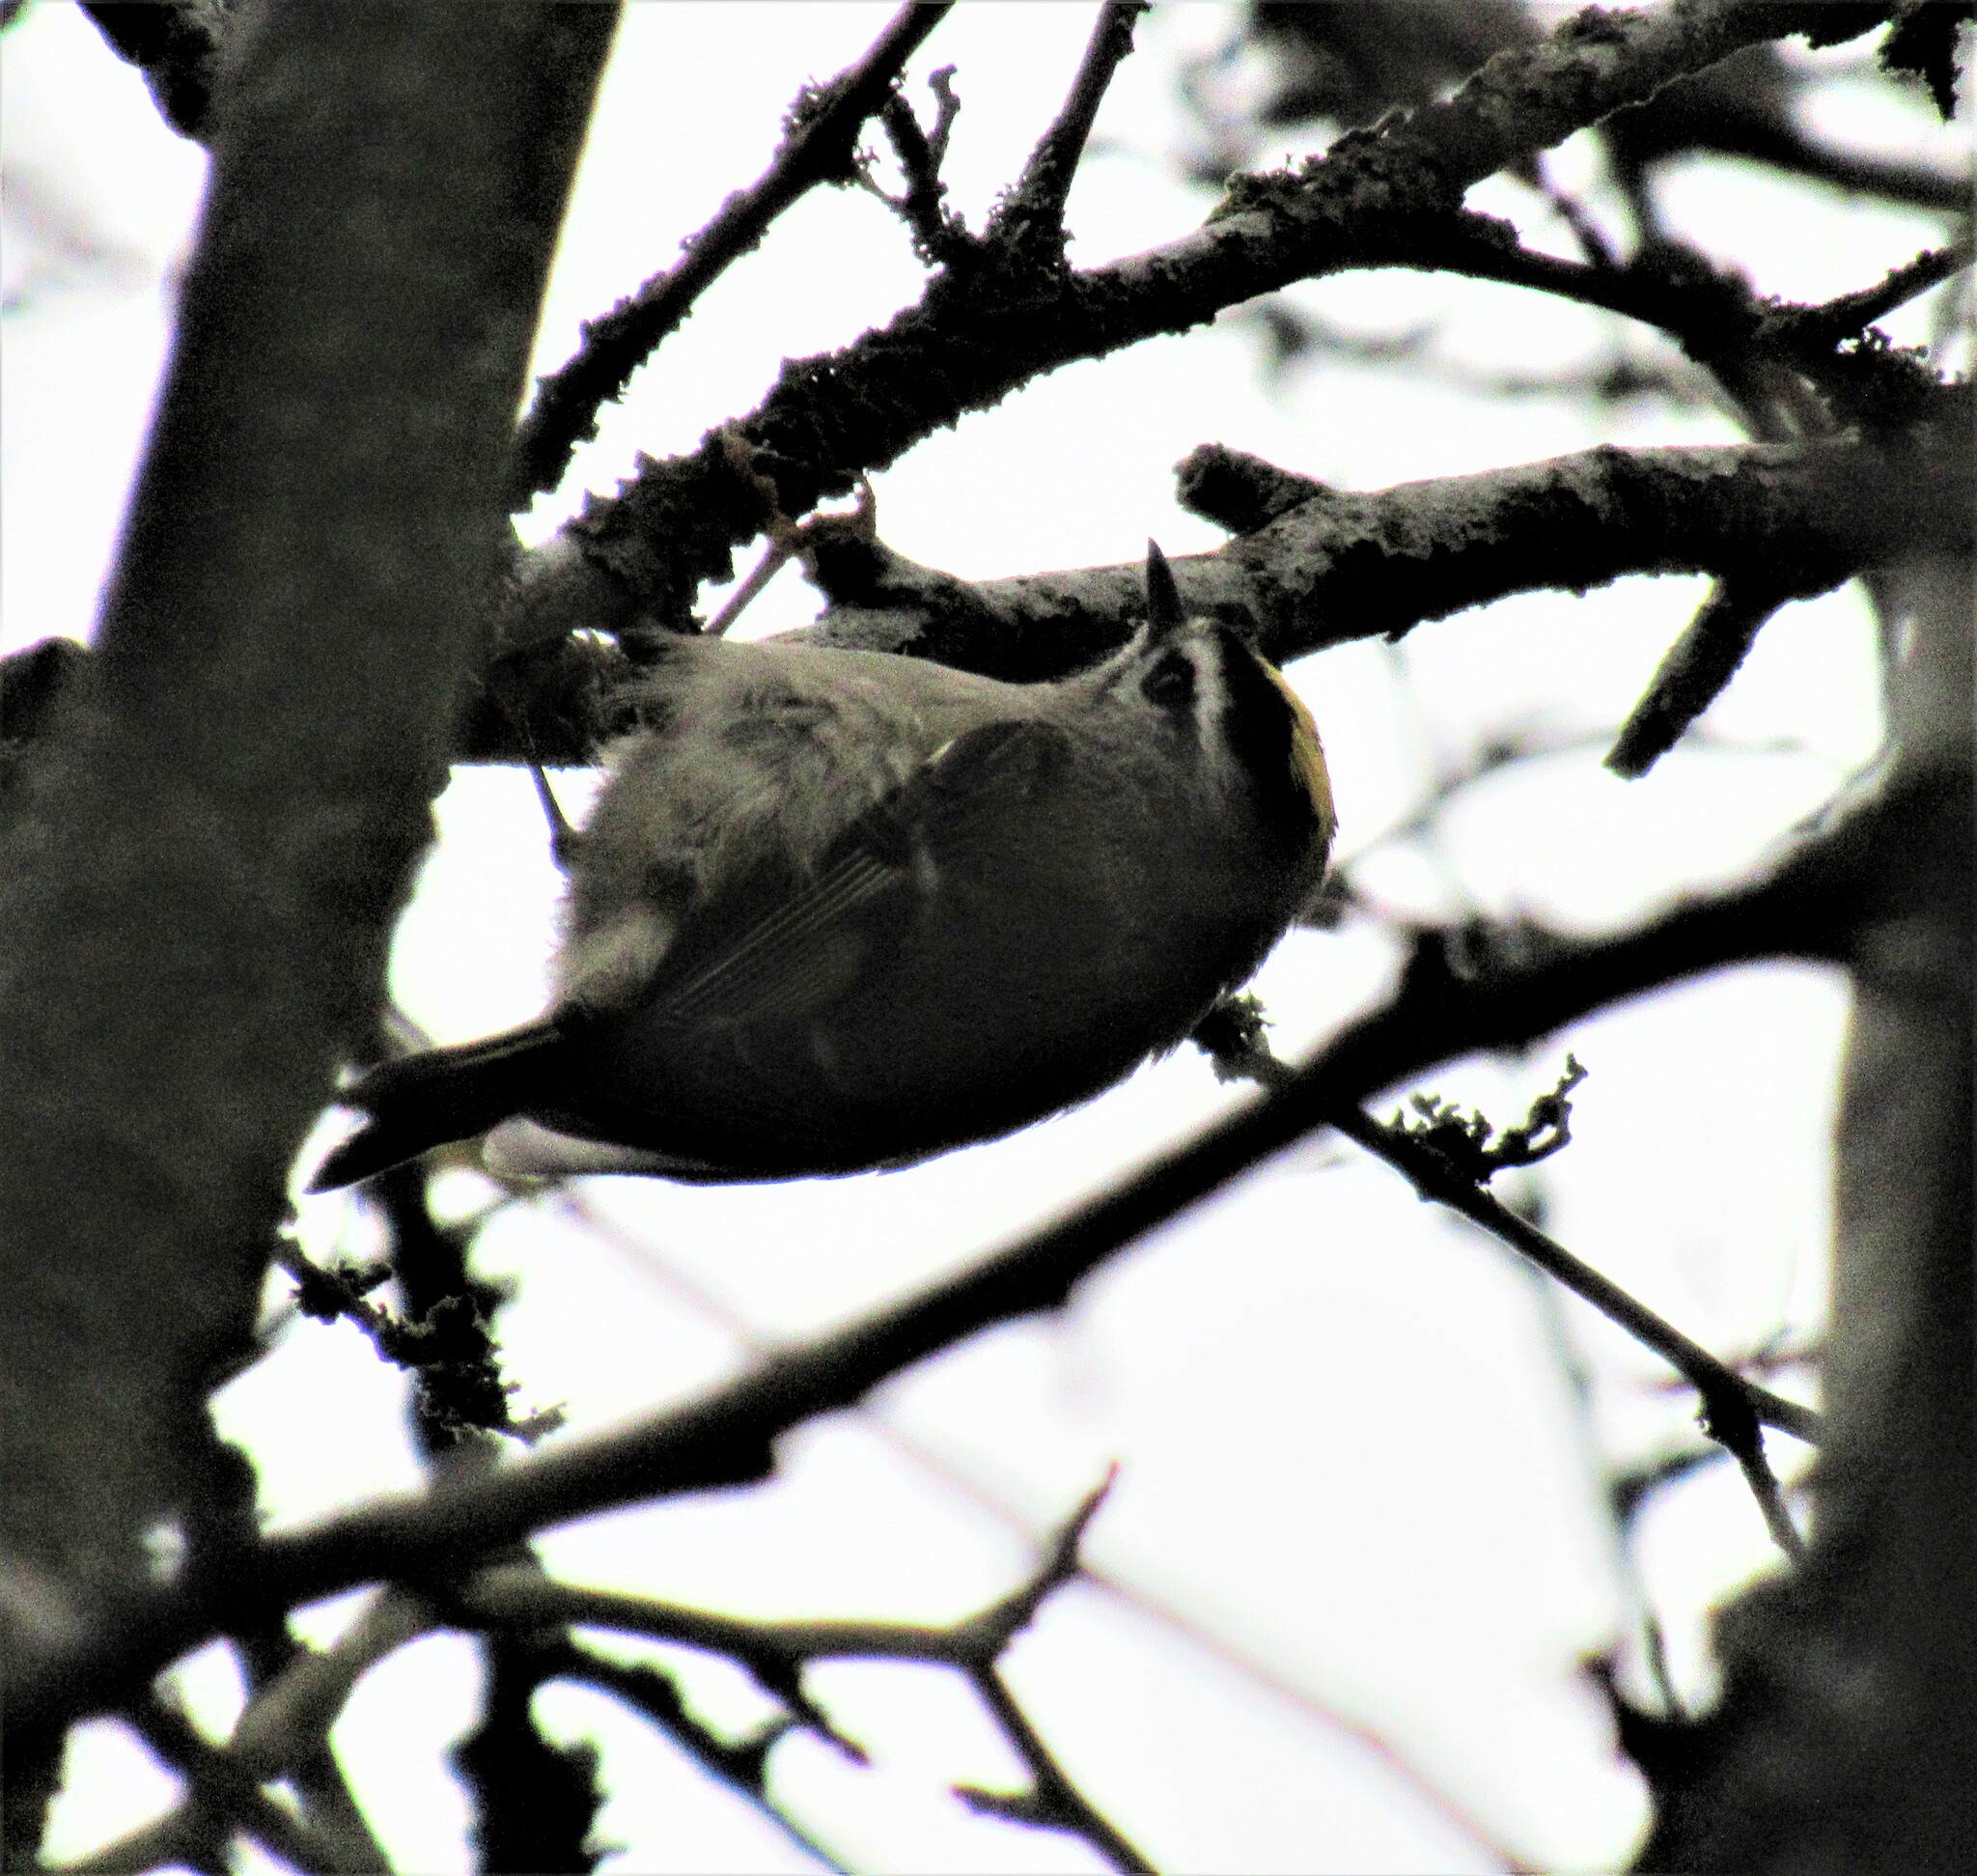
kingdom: Animalia
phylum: Chordata
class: Aves
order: Passeriformes
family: Regulidae
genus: Regulus
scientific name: Regulus satrapa
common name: Golden-crowned kinglet
